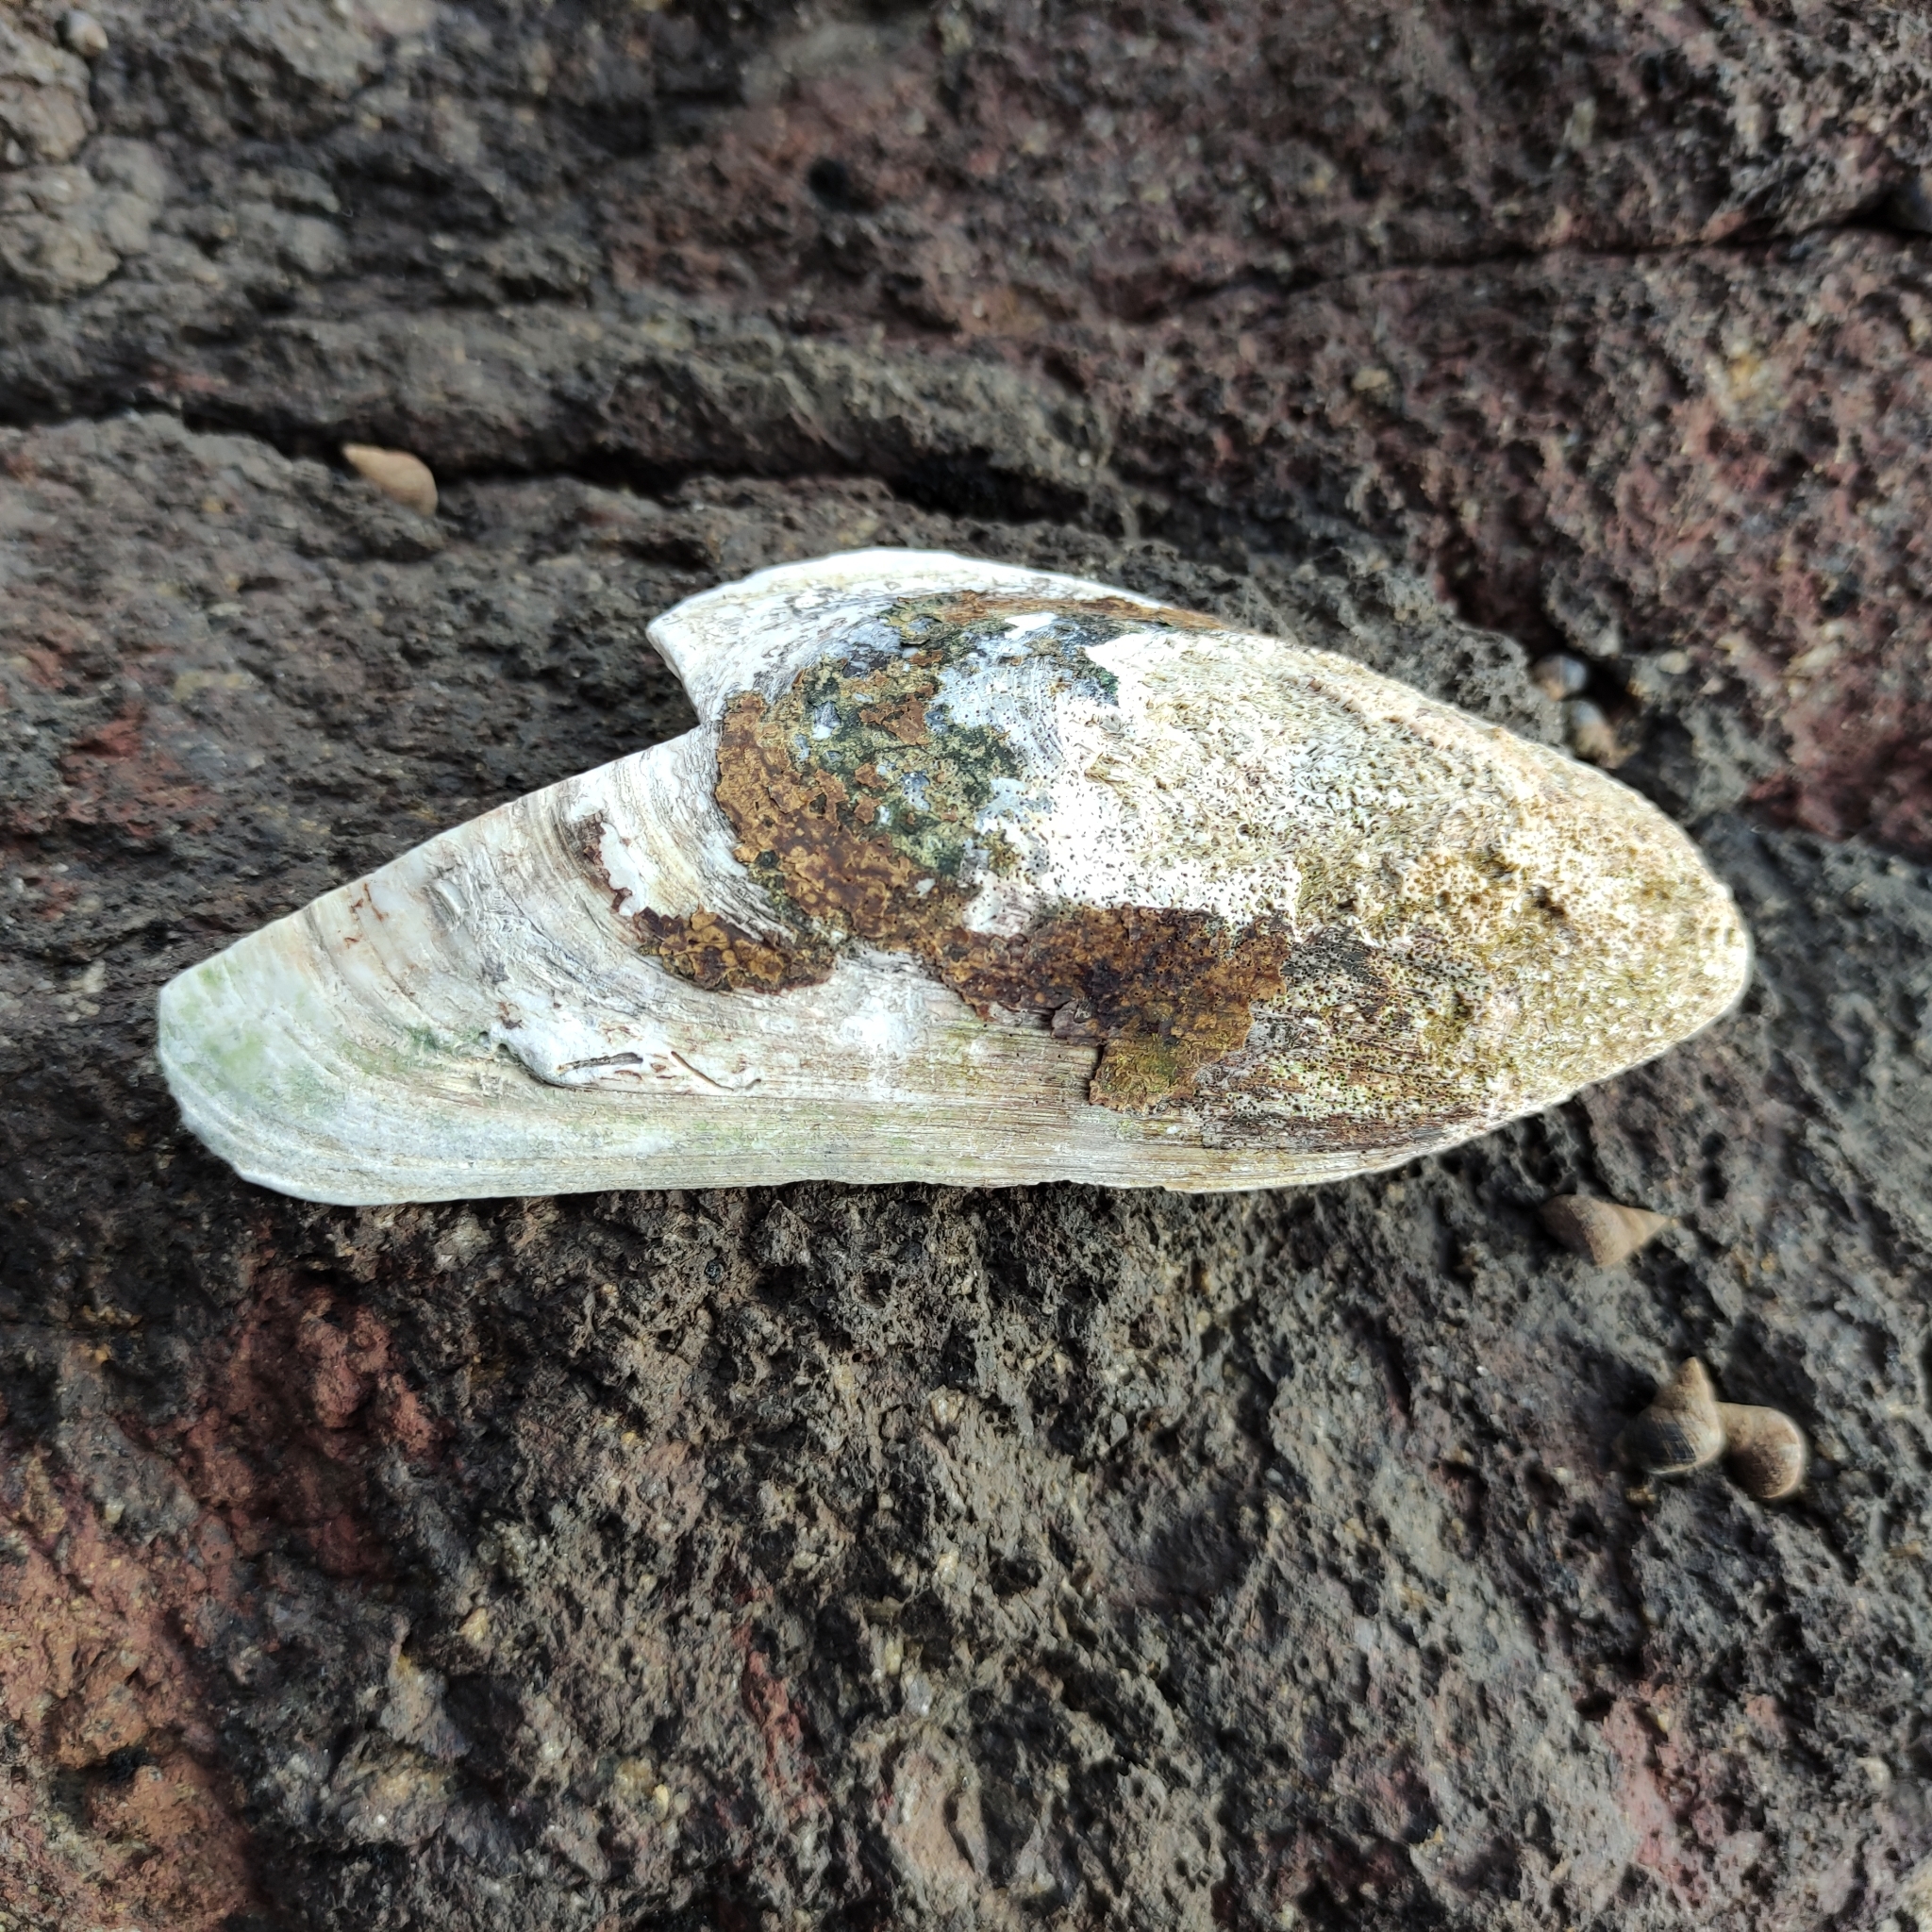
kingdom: Animalia
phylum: Mollusca
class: Bivalvia
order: Mytilida
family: Mytilidae
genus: Perna
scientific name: Perna canaliculus
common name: New zealand greenshelltm
